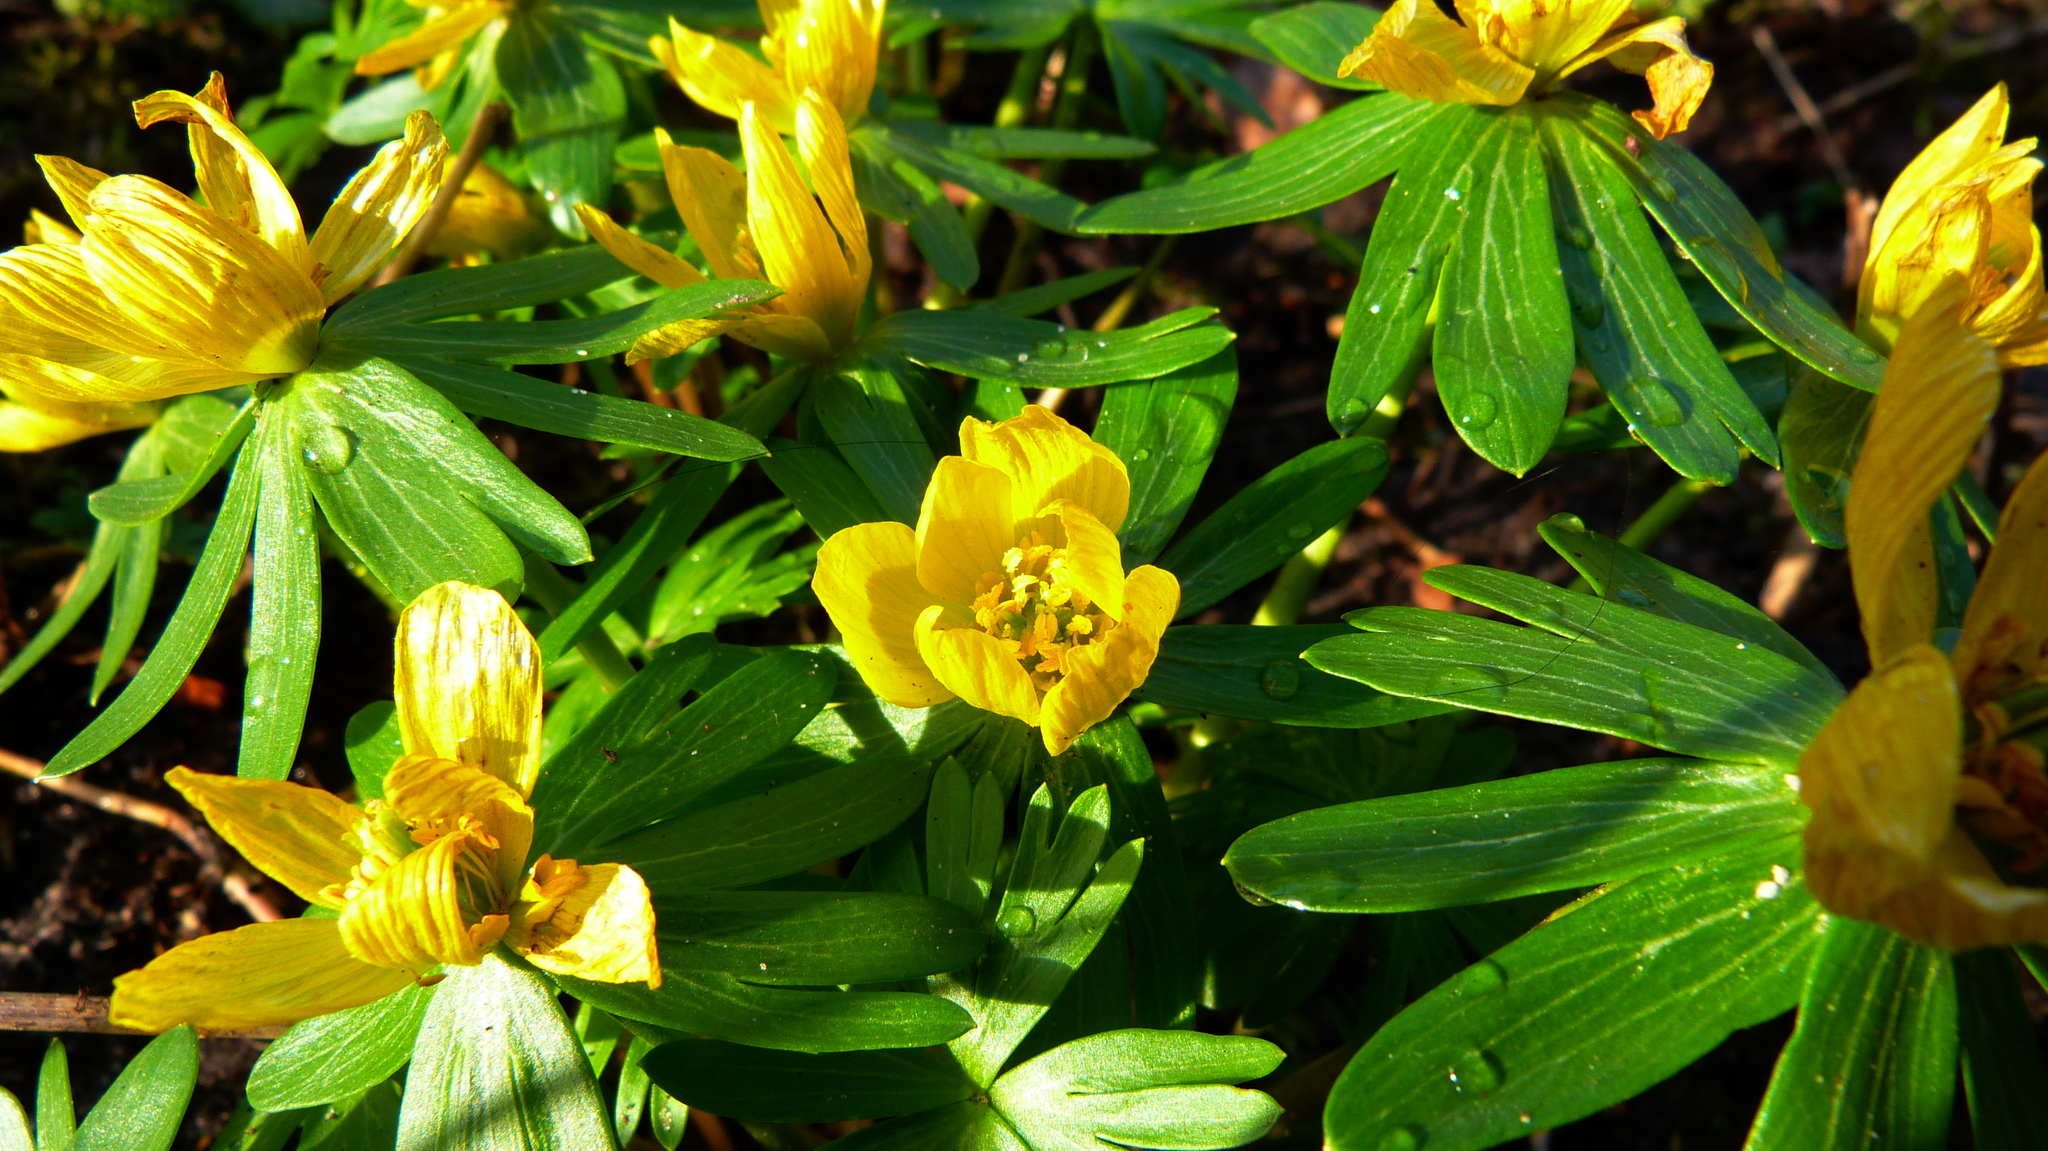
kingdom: Plantae
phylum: Tracheophyta
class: Magnoliopsida
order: Ranunculales
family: Ranunculaceae
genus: Eranthis
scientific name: Eranthis hyemalis
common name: Winter aconite
